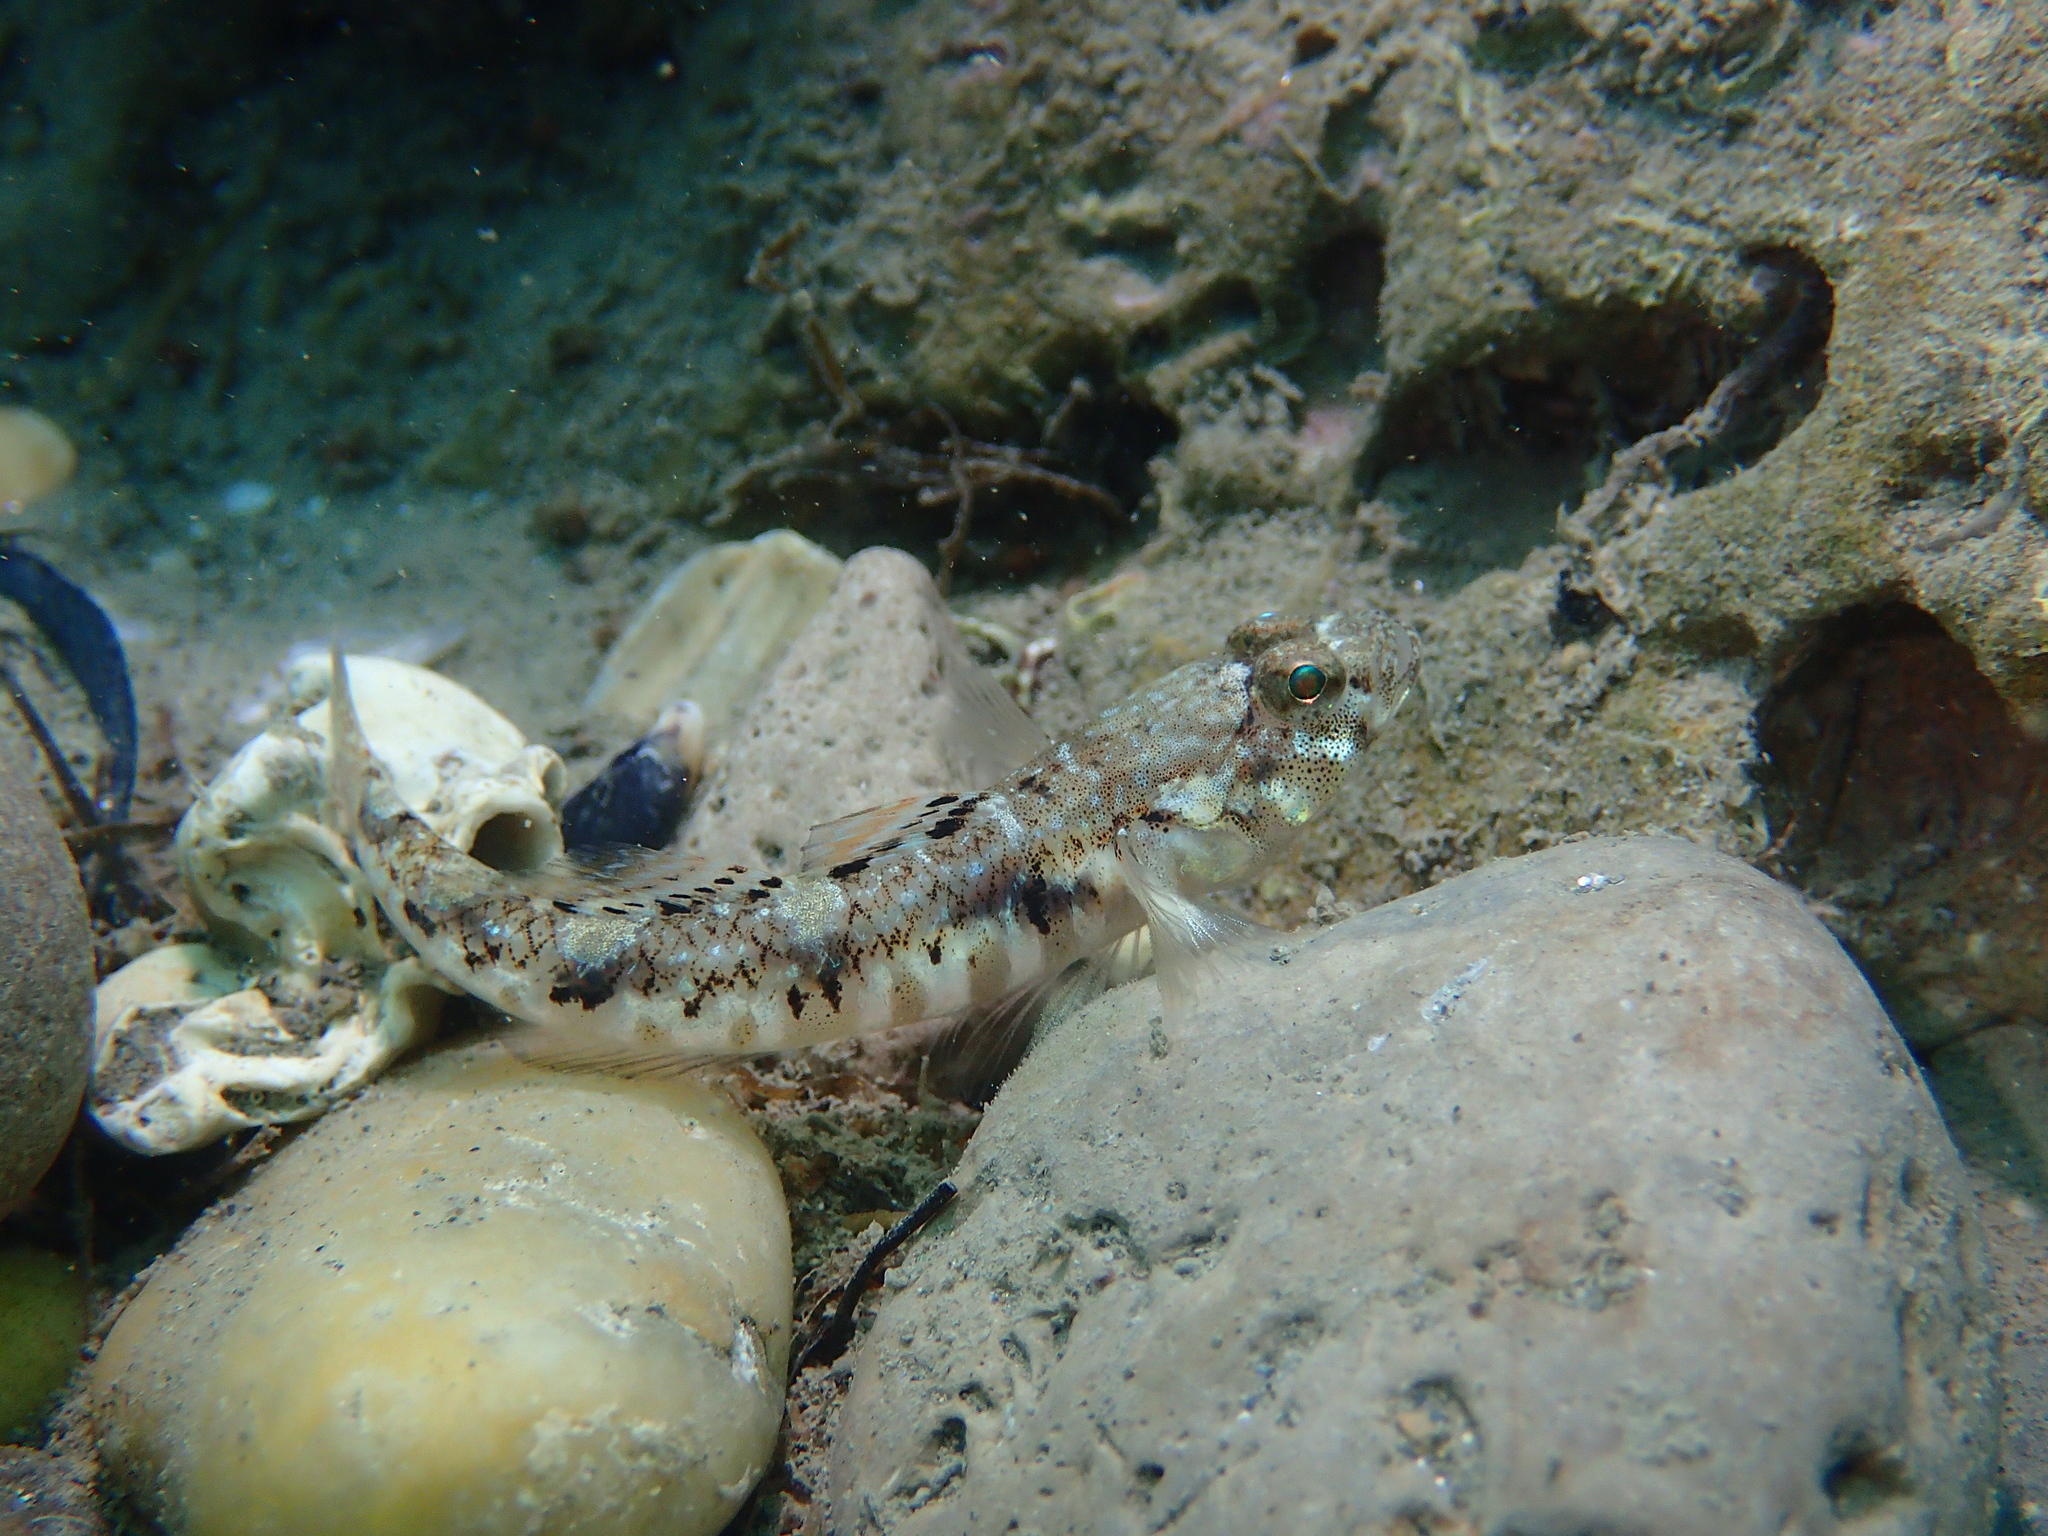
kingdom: Animalia
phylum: Chordata
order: Perciformes
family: Gobiidae
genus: Pomatoschistus
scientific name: Pomatoschistus pictus
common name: Painted goby
